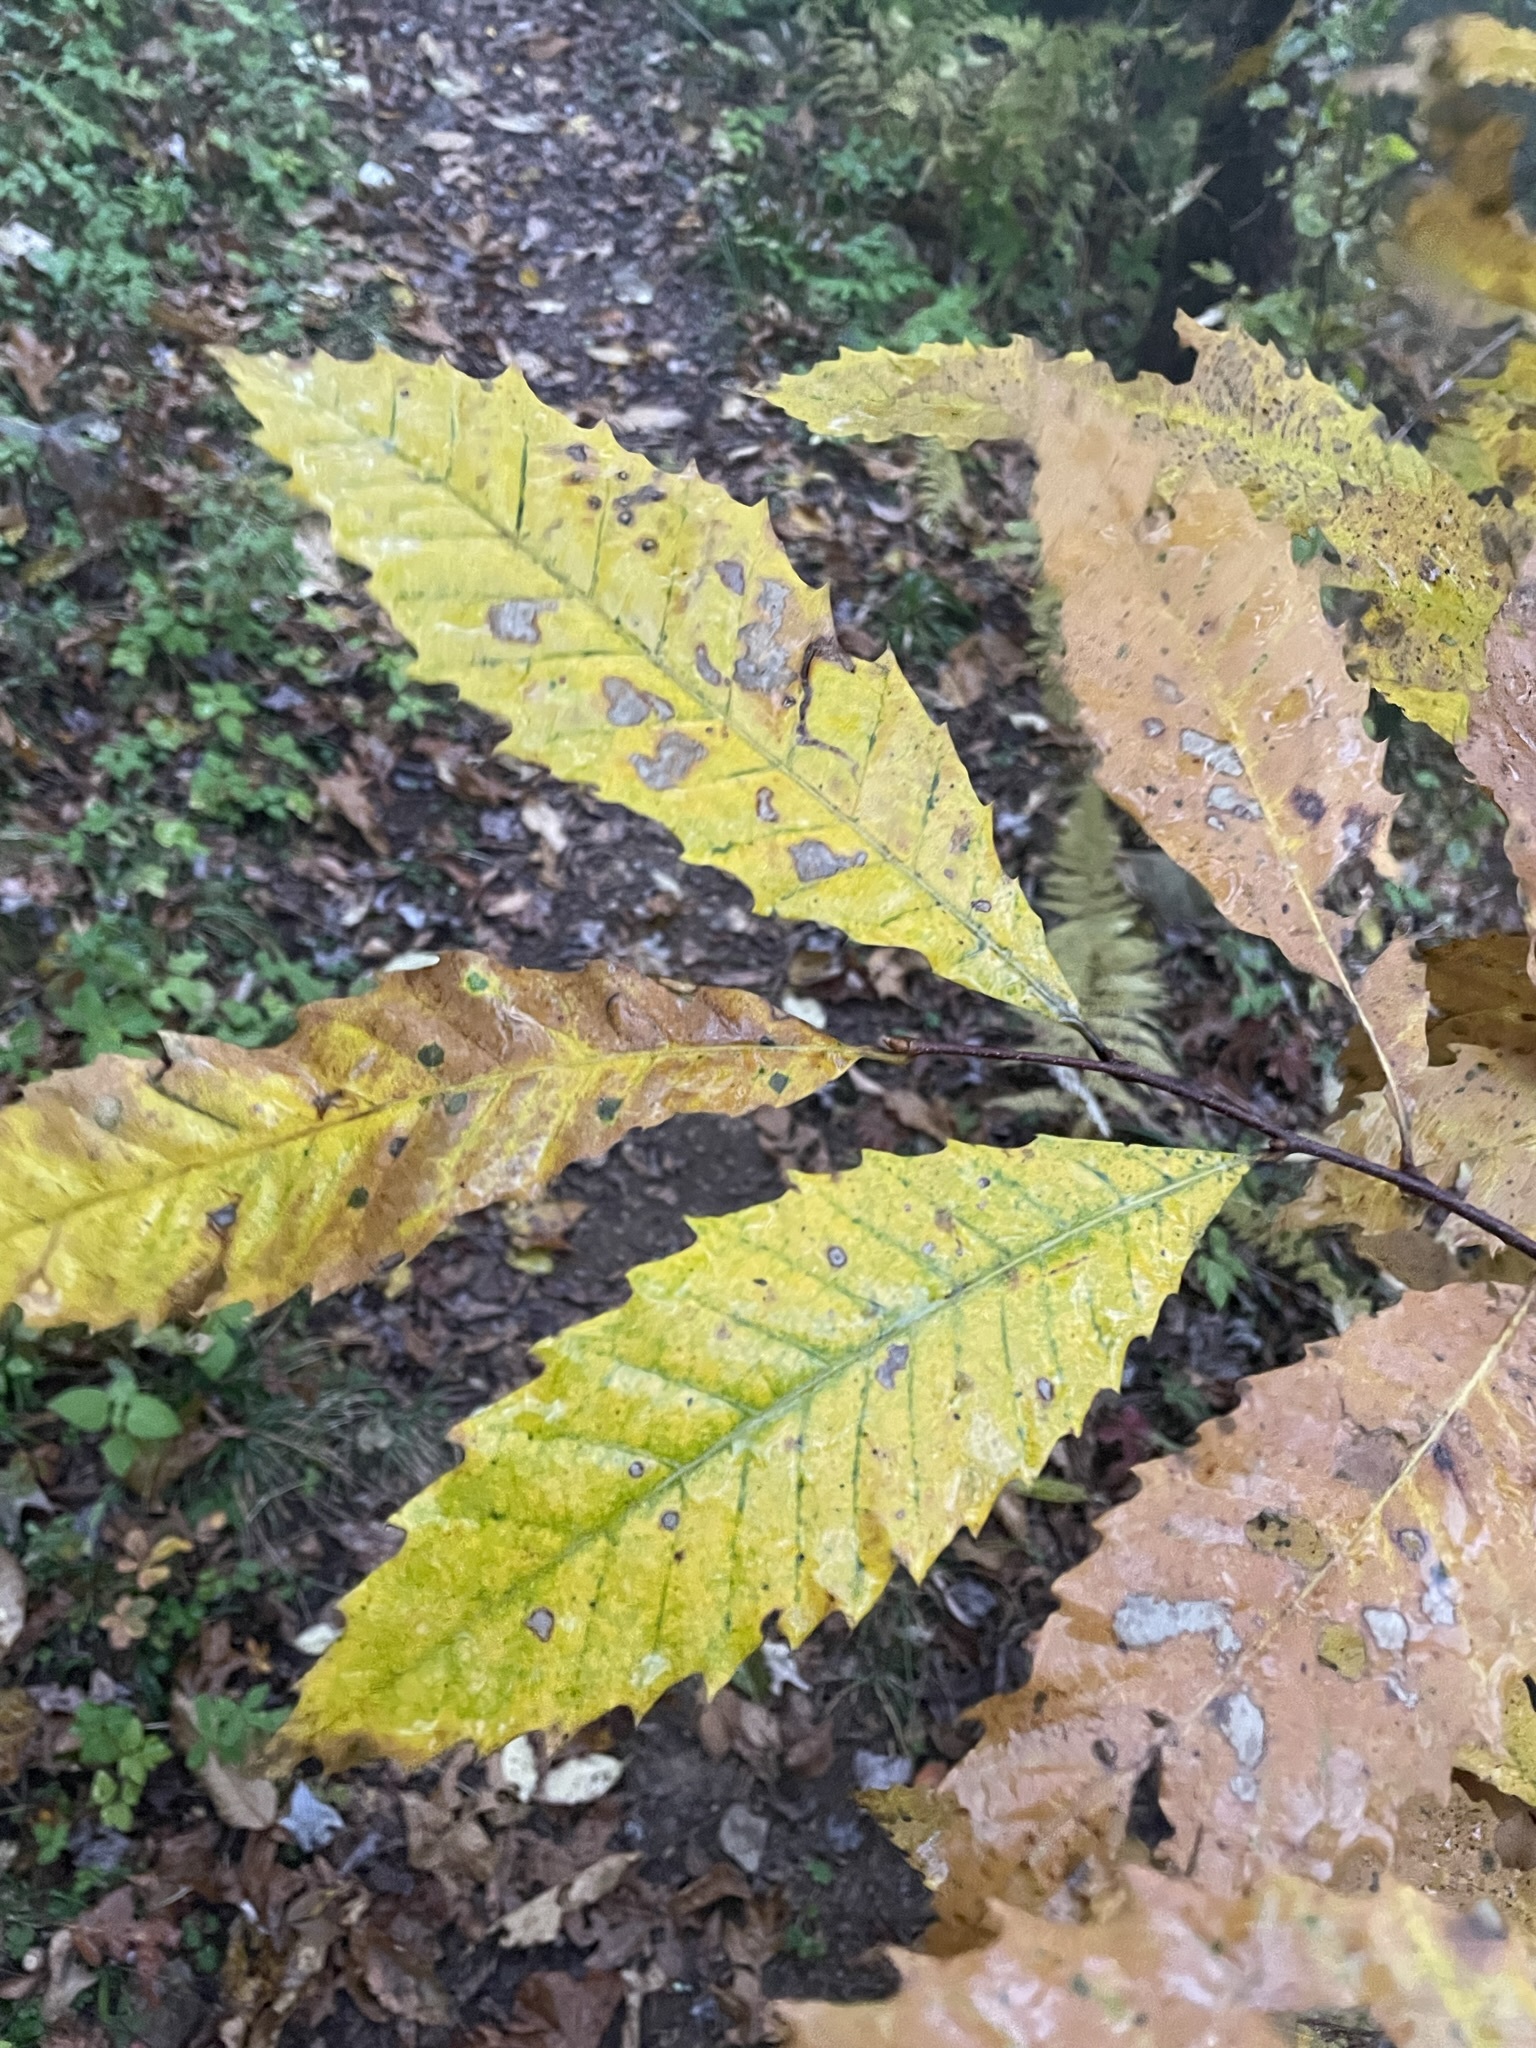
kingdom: Plantae
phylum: Tracheophyta
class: Magnoliopsida
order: Fagales
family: Fagaceae
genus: Castanea
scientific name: Castanea dentata
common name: American chestnut
